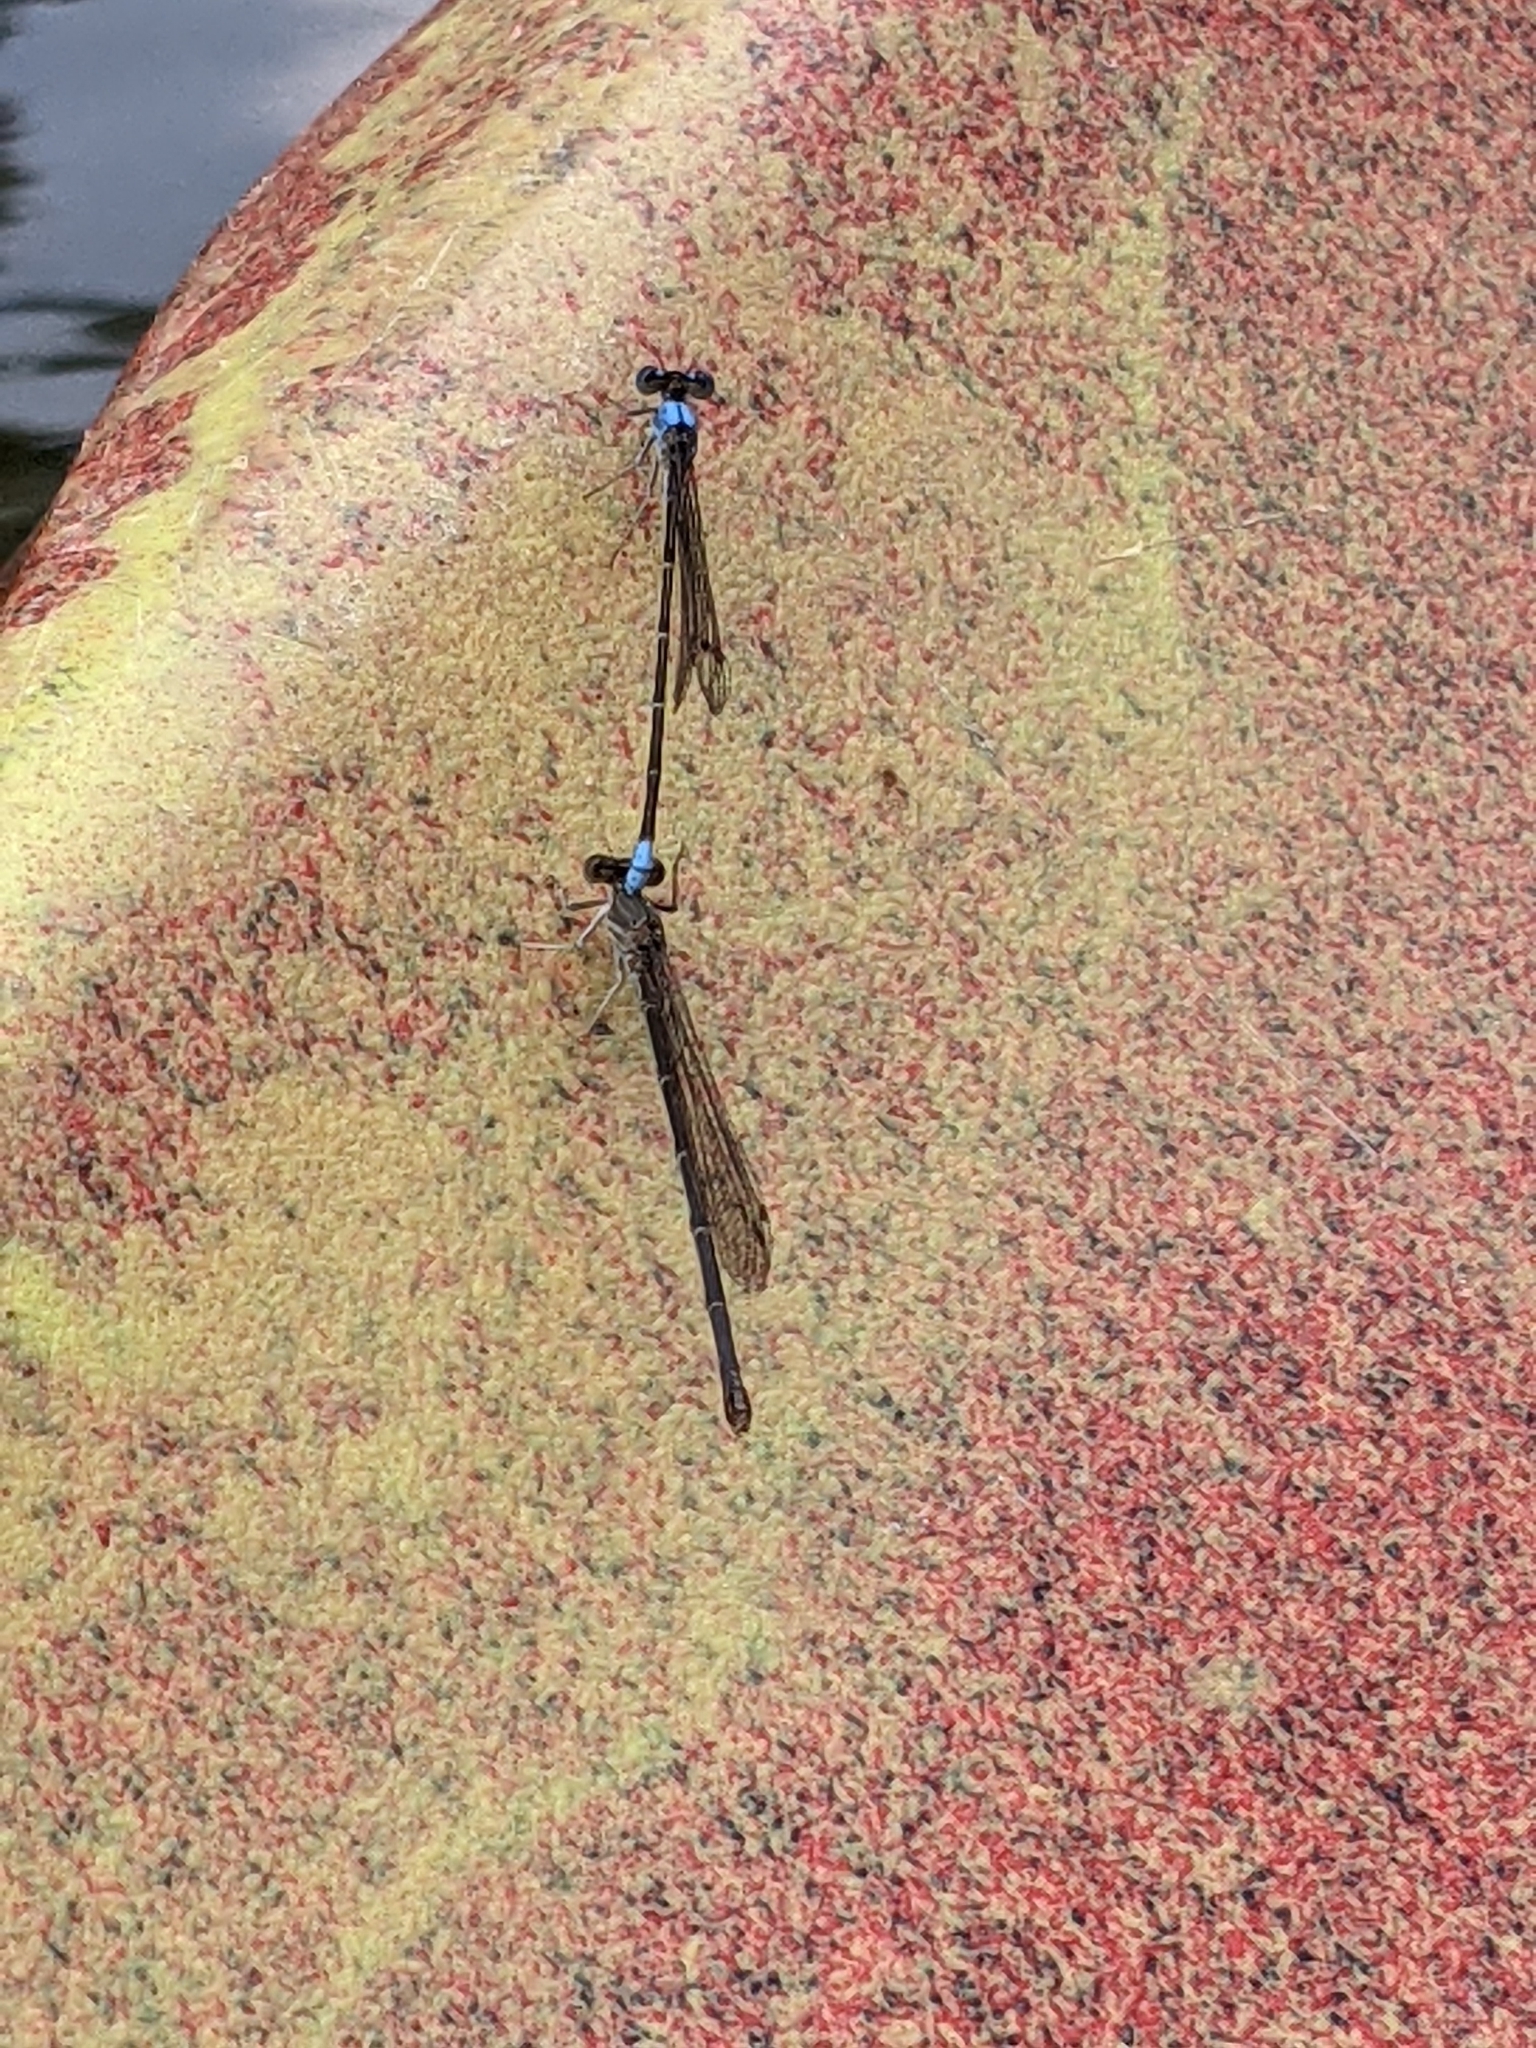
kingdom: Animalia
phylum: Arthropoda
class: Insecta
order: Odonata
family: Coenagrionidae
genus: Argia
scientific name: Argia apicalis
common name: Blue-fronted dancer
